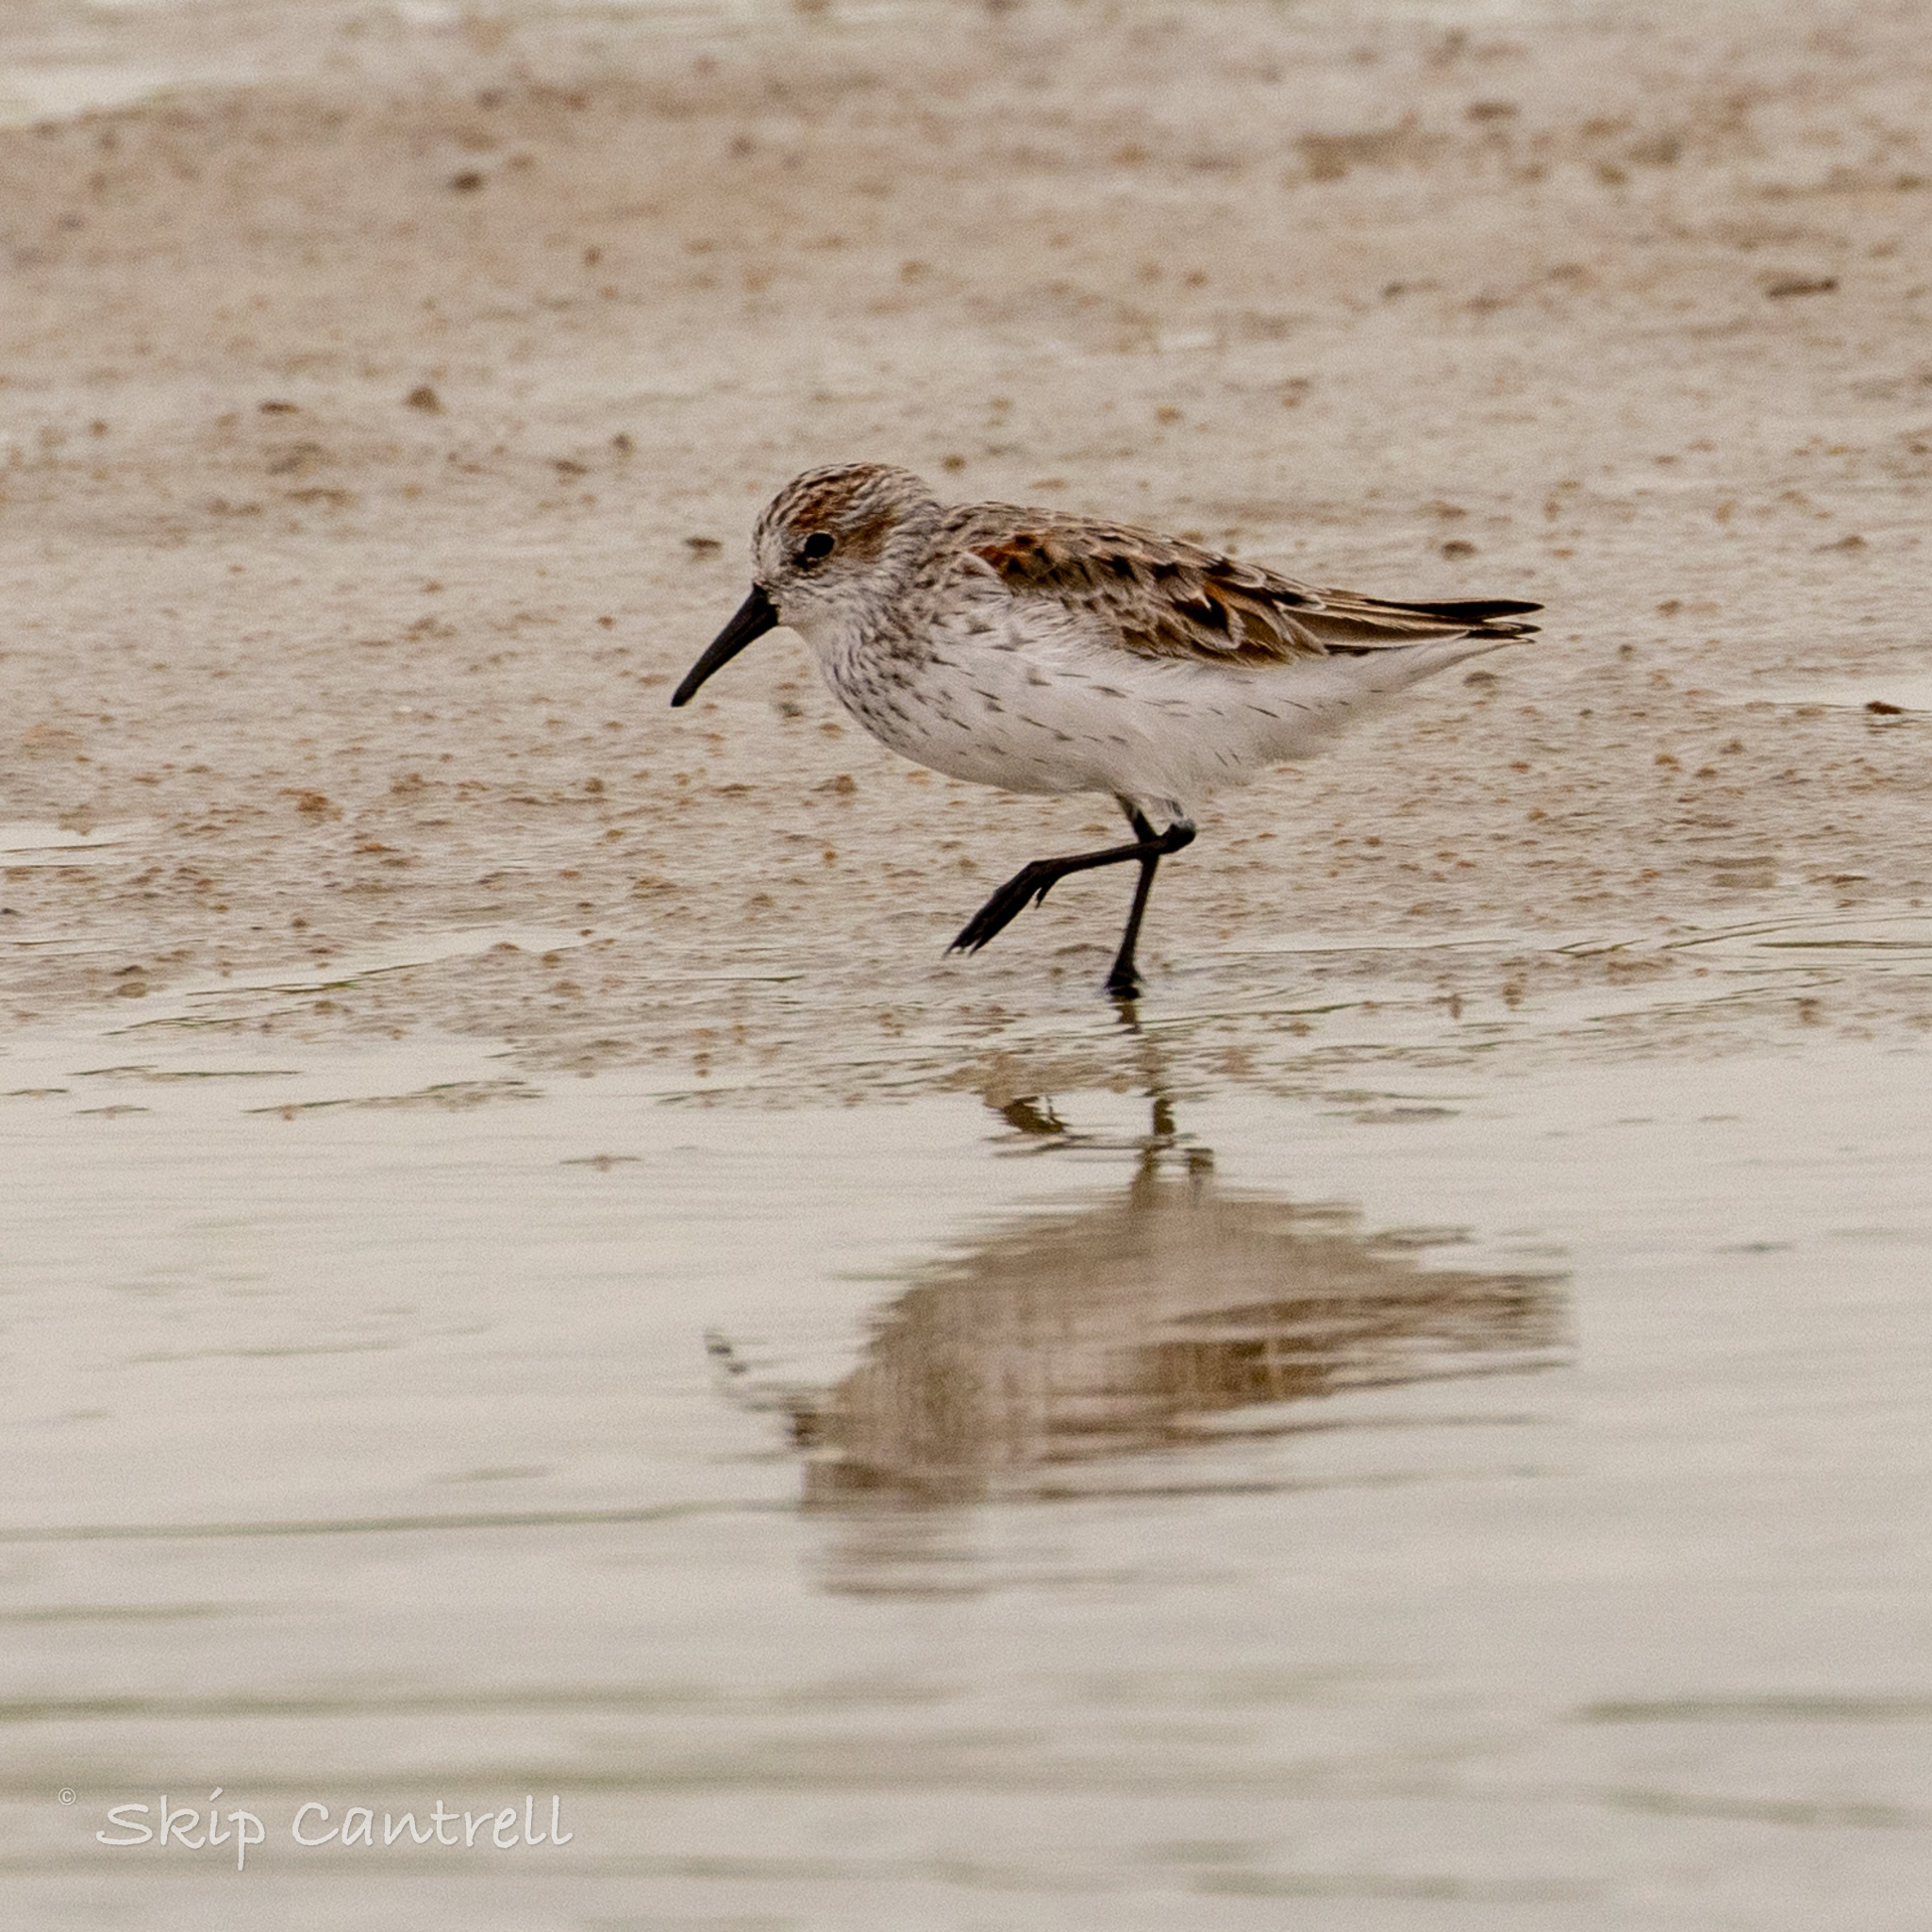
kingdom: Animalia
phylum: Chordata
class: Aves
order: Charadriiformes
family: Scolopacidae
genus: Calidris
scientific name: Calidris mauri
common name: Western sandpiper
